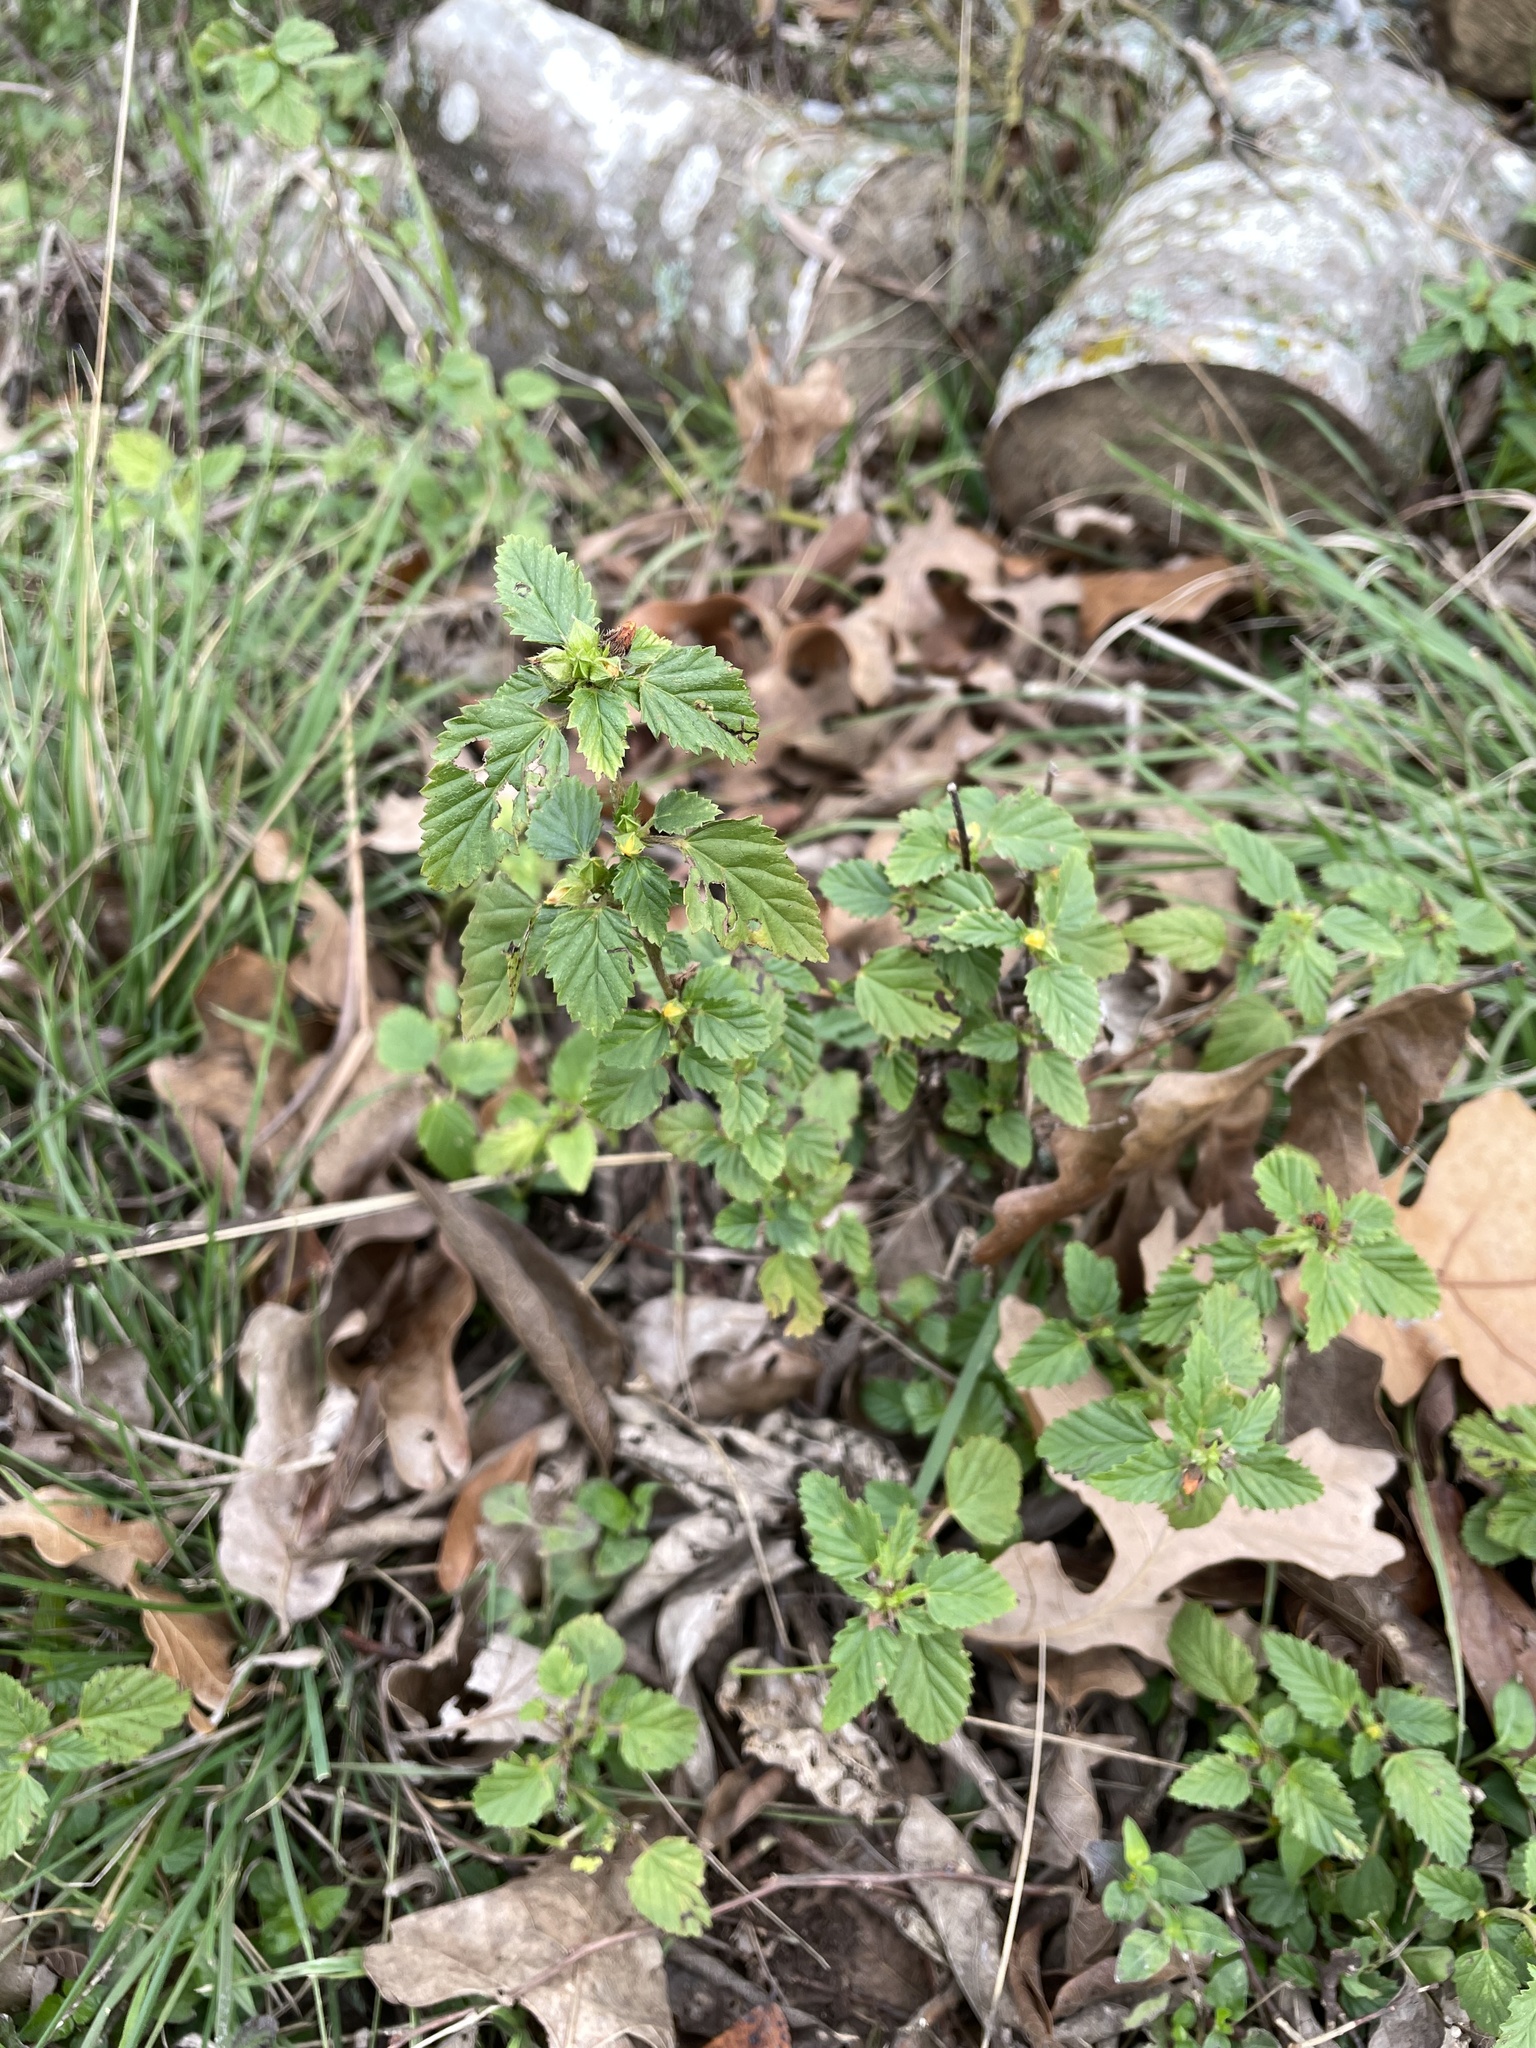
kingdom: Plantae
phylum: Tracheophyta
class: Magnoliopsida
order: Malvales
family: Malvaceae
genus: Malvastrum
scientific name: Malvastrum coromandelianum
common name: Threelobe false mallow
